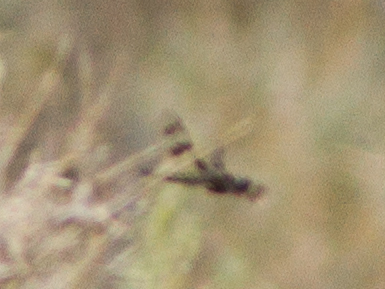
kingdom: Animalia
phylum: Arthropoda
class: Insecta
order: Odonata
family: Libellulidae
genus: Plathemis
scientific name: Plathemis subornata
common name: Desert whitetail
